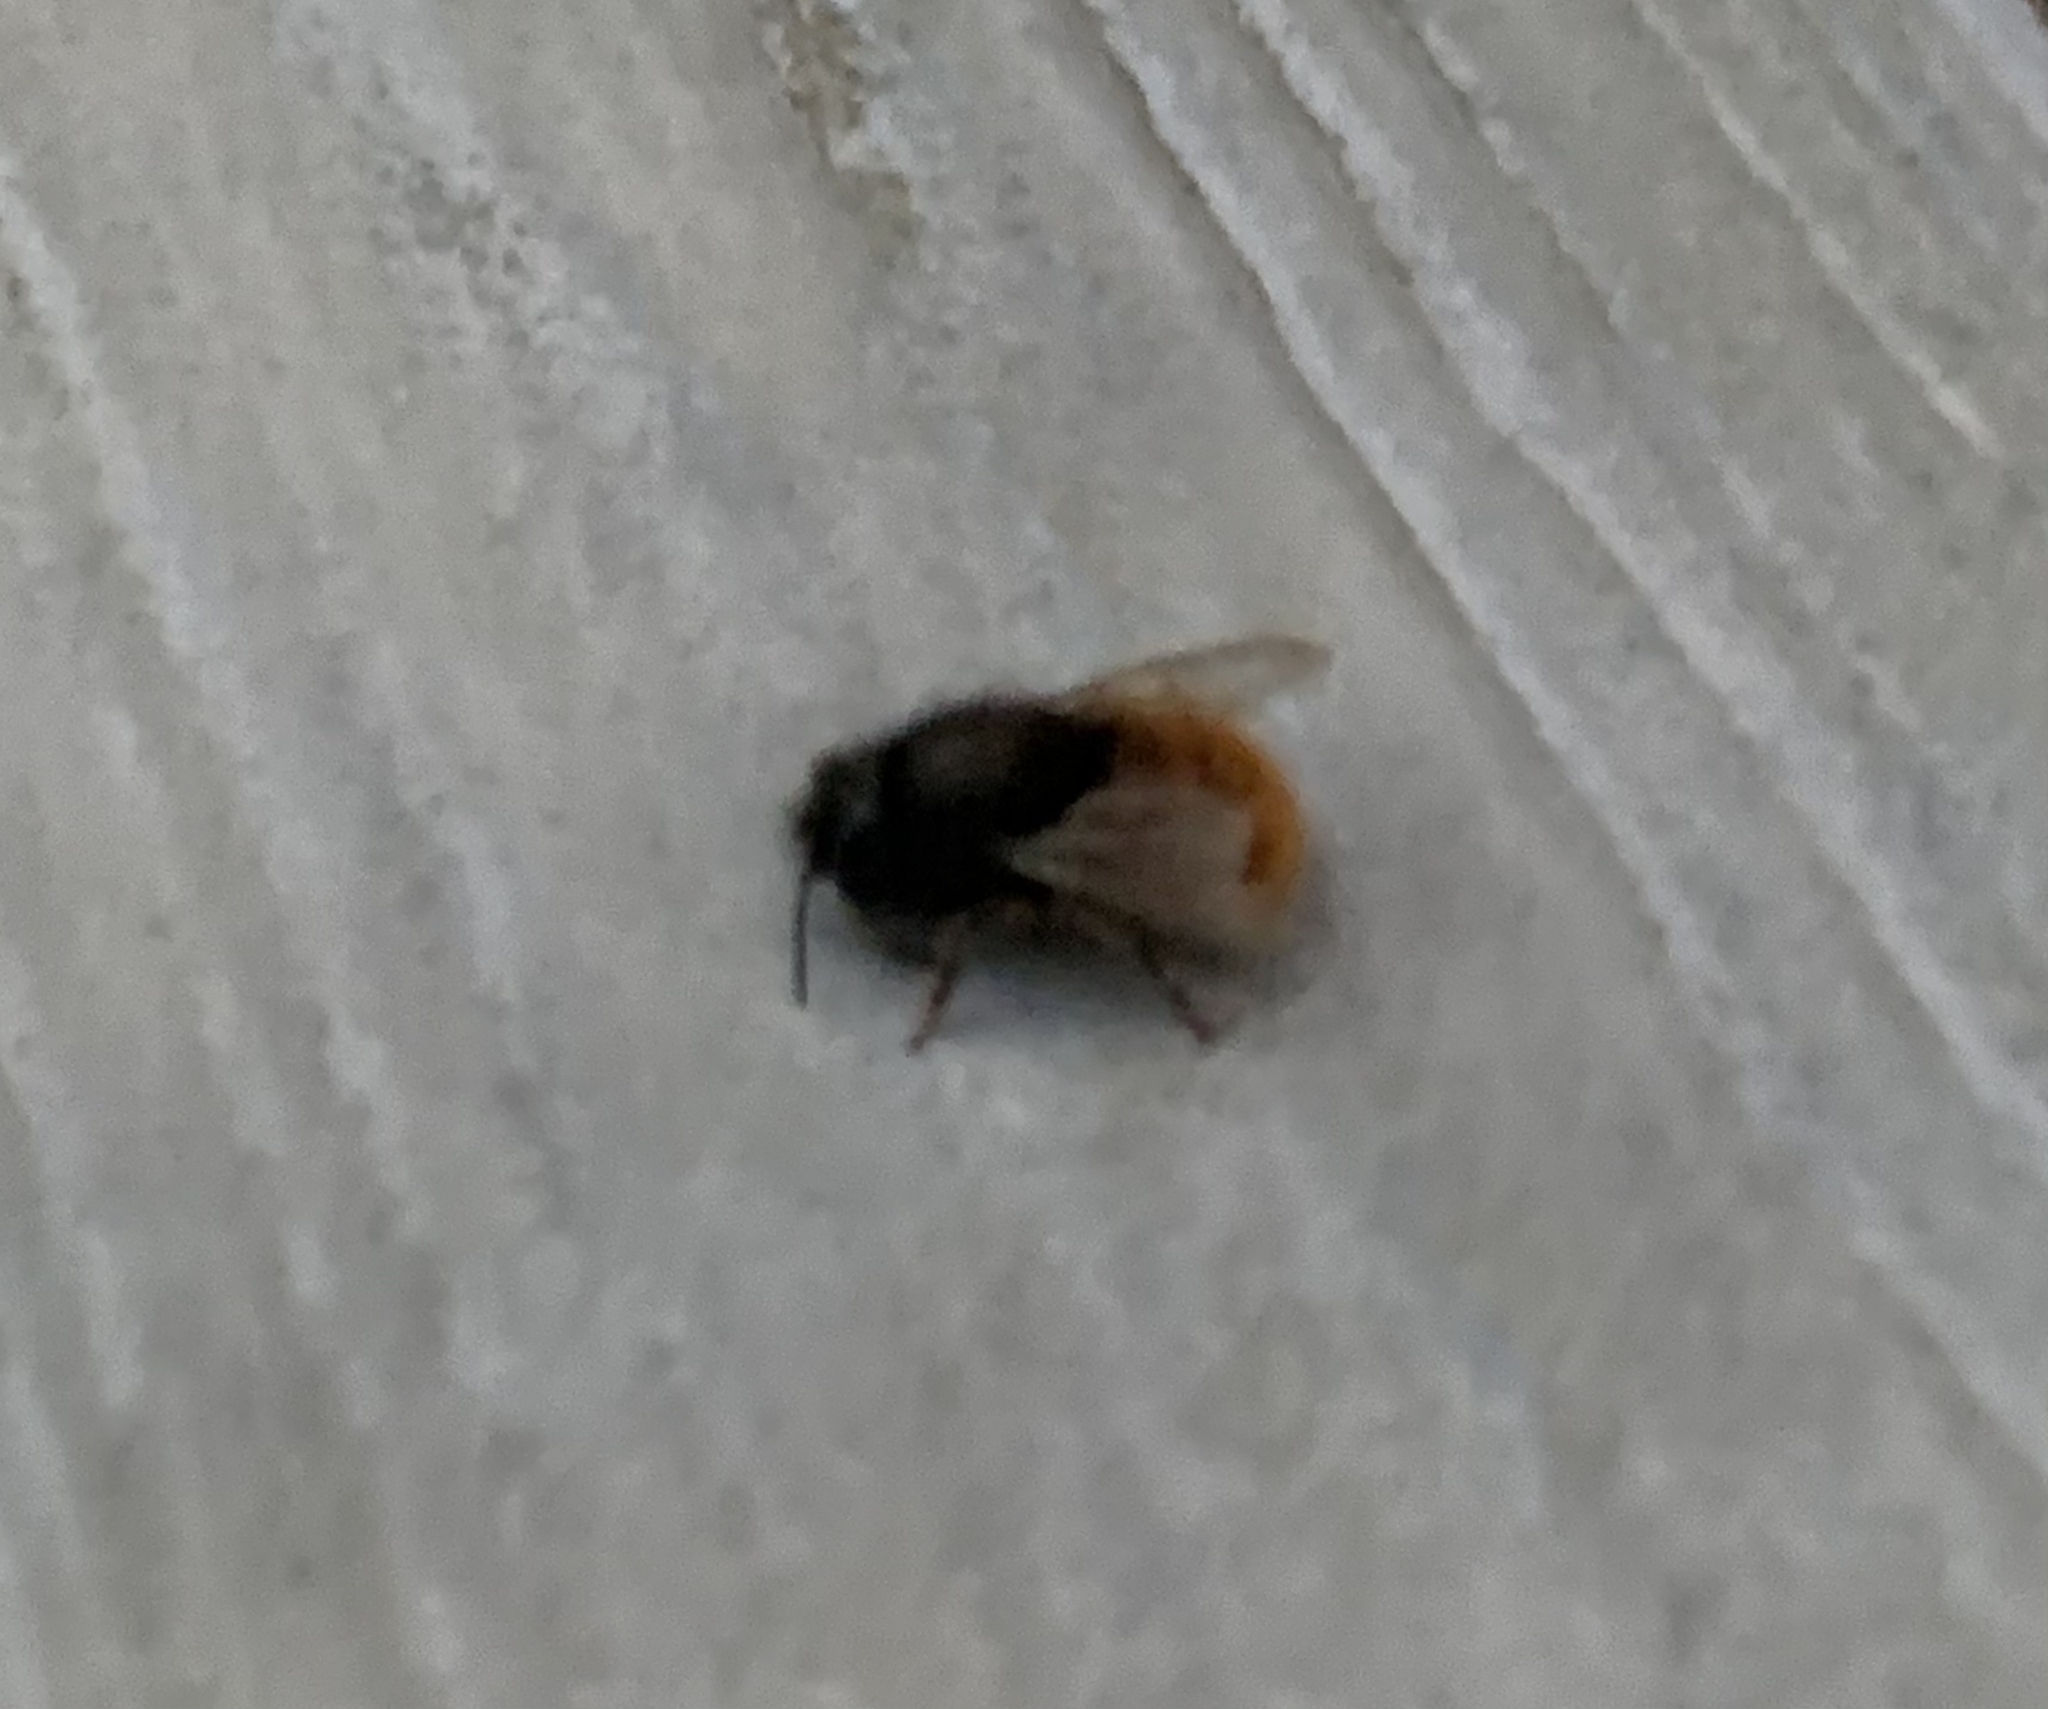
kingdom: Animalia
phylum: Arthropoda
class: Insecta
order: Hymenoptera
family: Megachilidae
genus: Osmia
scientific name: Osmia cornuta
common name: Mason bee
